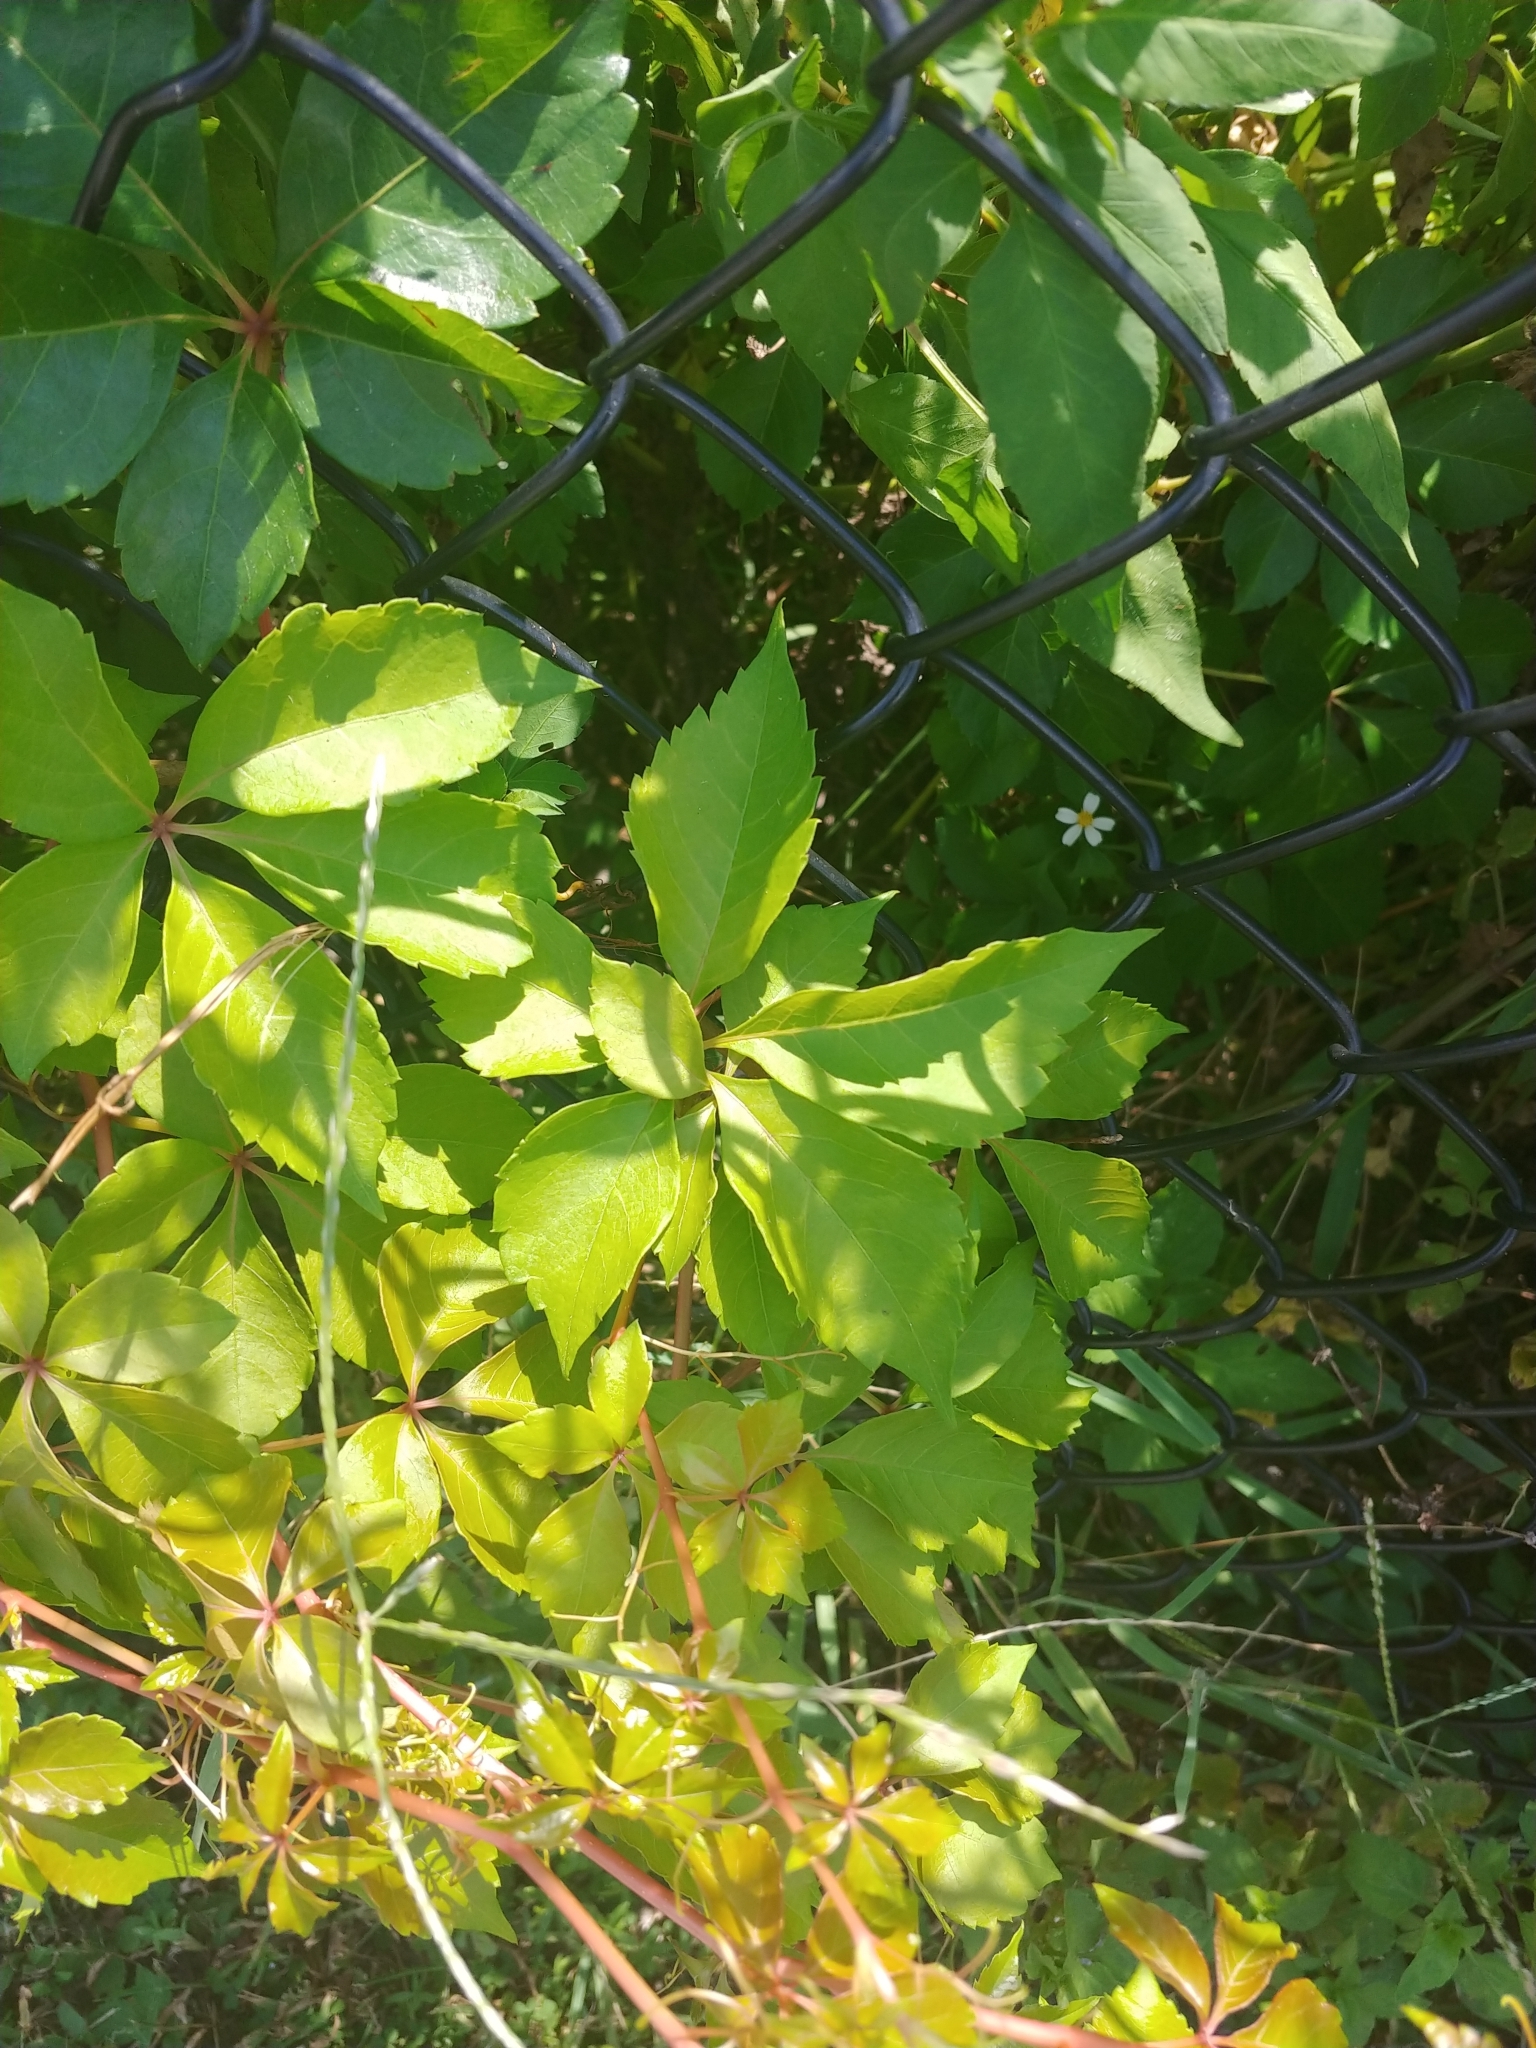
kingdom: Plantae
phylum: Tracheophyta
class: Magnoliopsida
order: Vitales
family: Vitaceae
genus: Parthenocissus
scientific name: Parthenocissus quinquefolia
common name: Virginia-creeper
